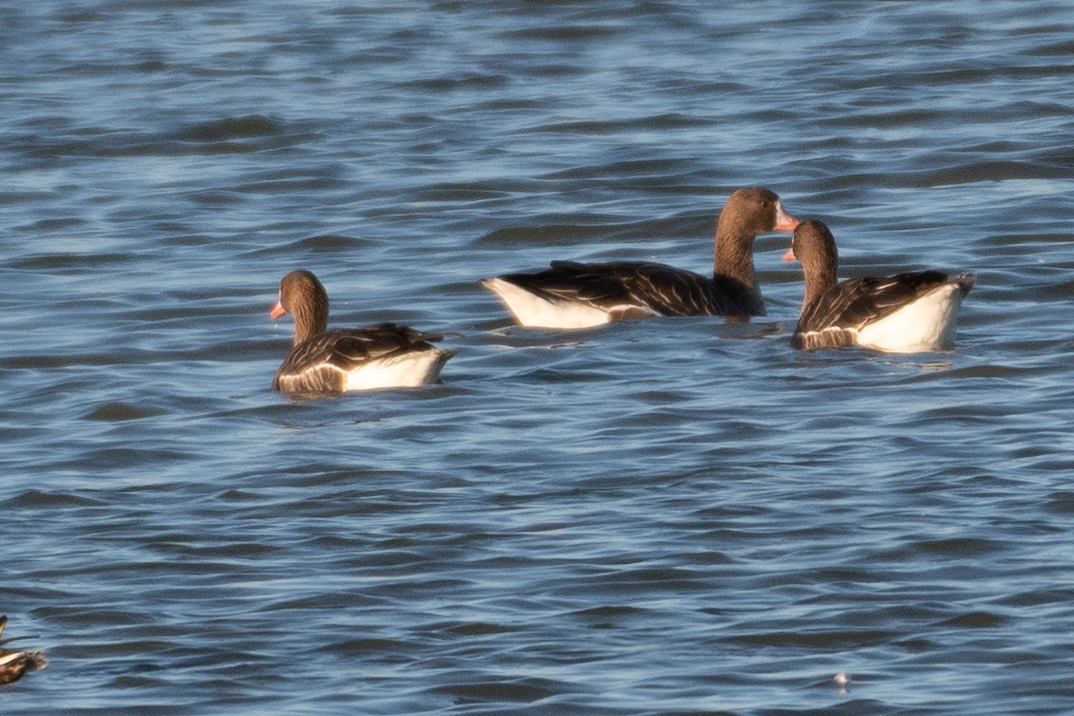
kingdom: Animalia
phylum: Chordata
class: Aves
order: Anseriformes
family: Anatidae
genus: Anser
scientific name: Anser albifrons
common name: Greater white-fronted goose
